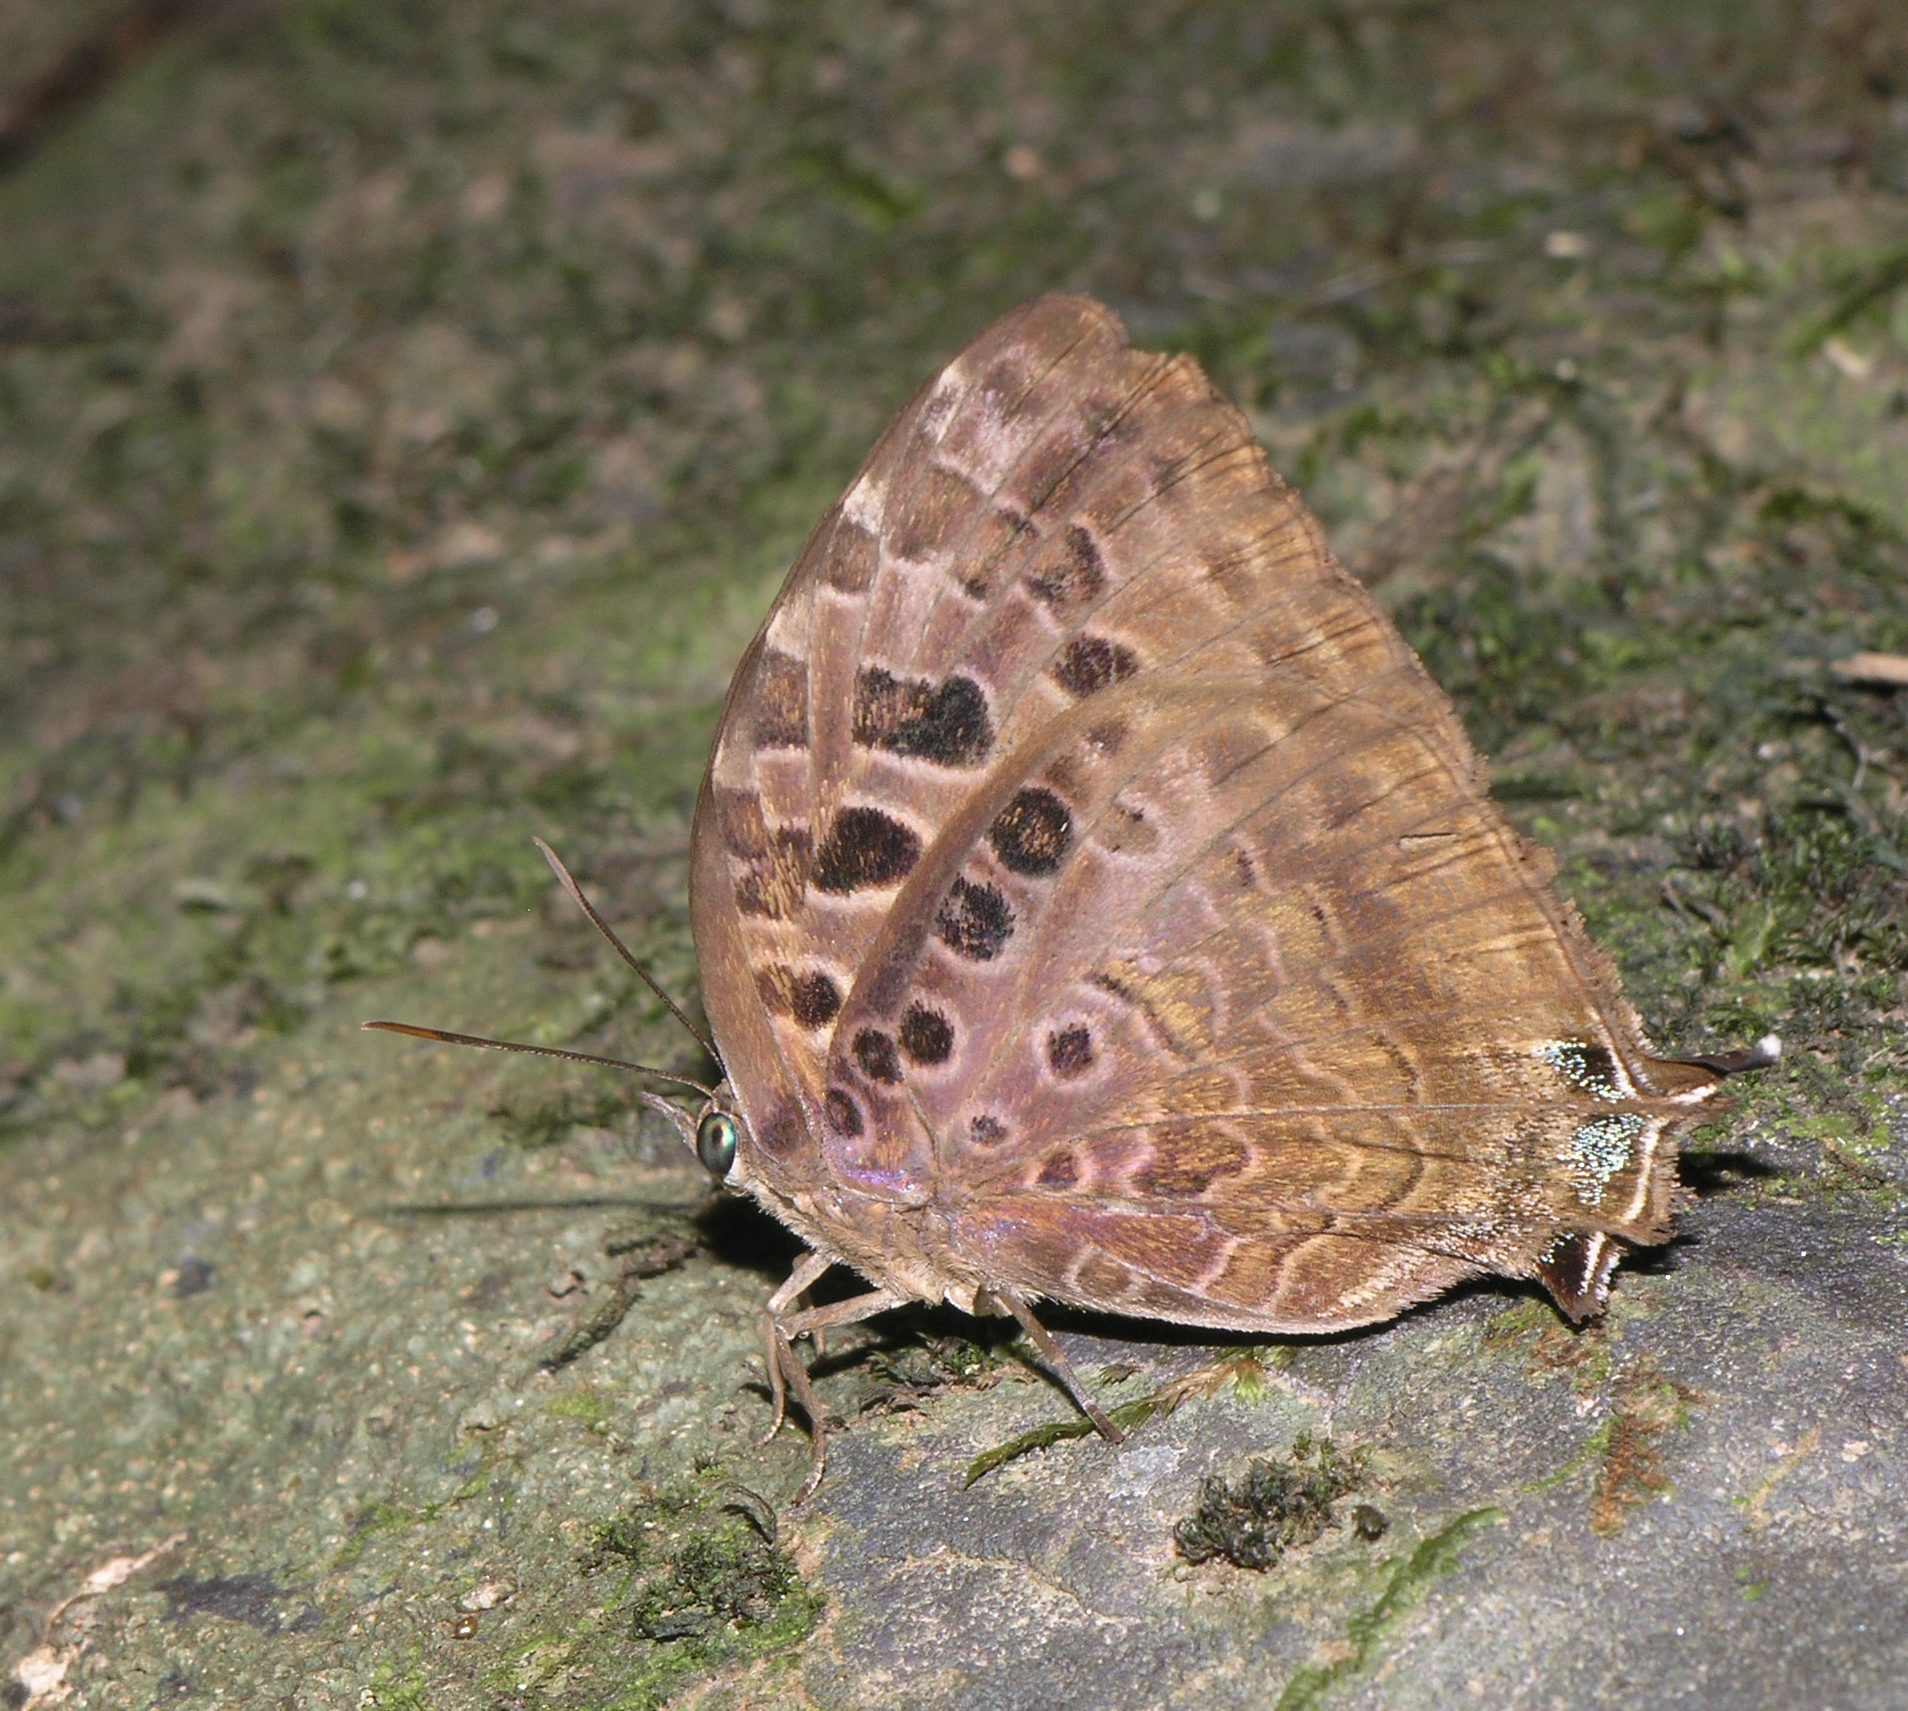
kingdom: Animalia
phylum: Arthropoda
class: Insecta
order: Lepidoptera
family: Lycaenidae
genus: Arhopala
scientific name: Arhopala anthelus
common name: Bushblue
